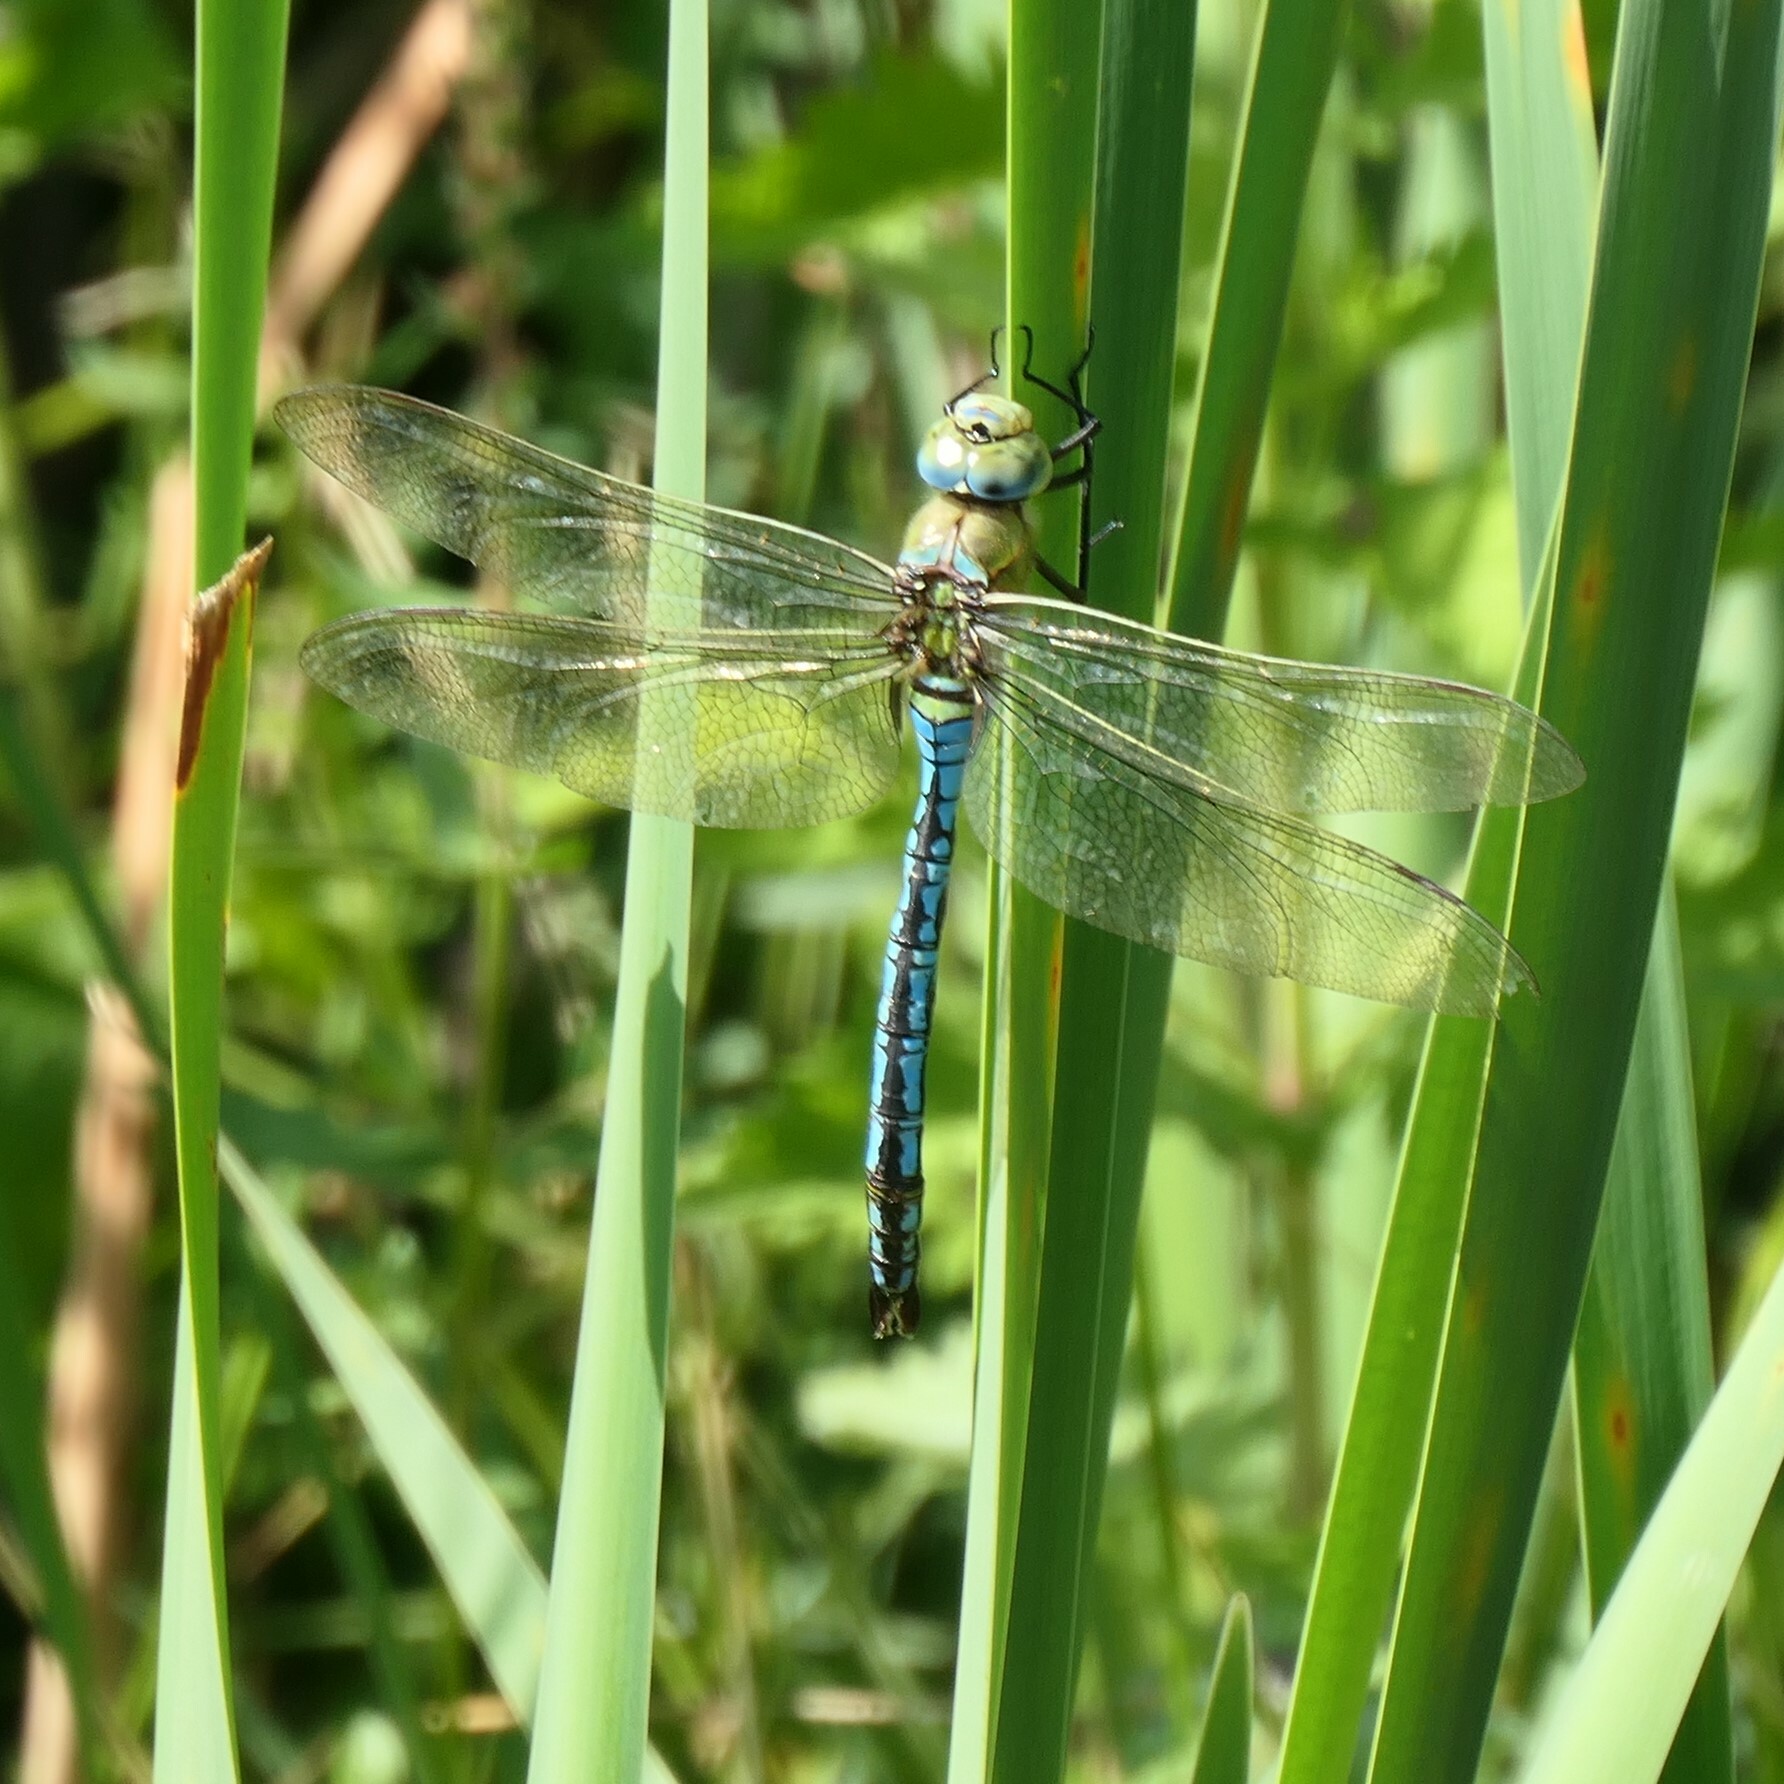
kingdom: Animalia
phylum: Arthropoda
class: Insecta
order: Odonata
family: Aeshnidae
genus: Anax
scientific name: Anax imperator
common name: Emperor dragonfly
